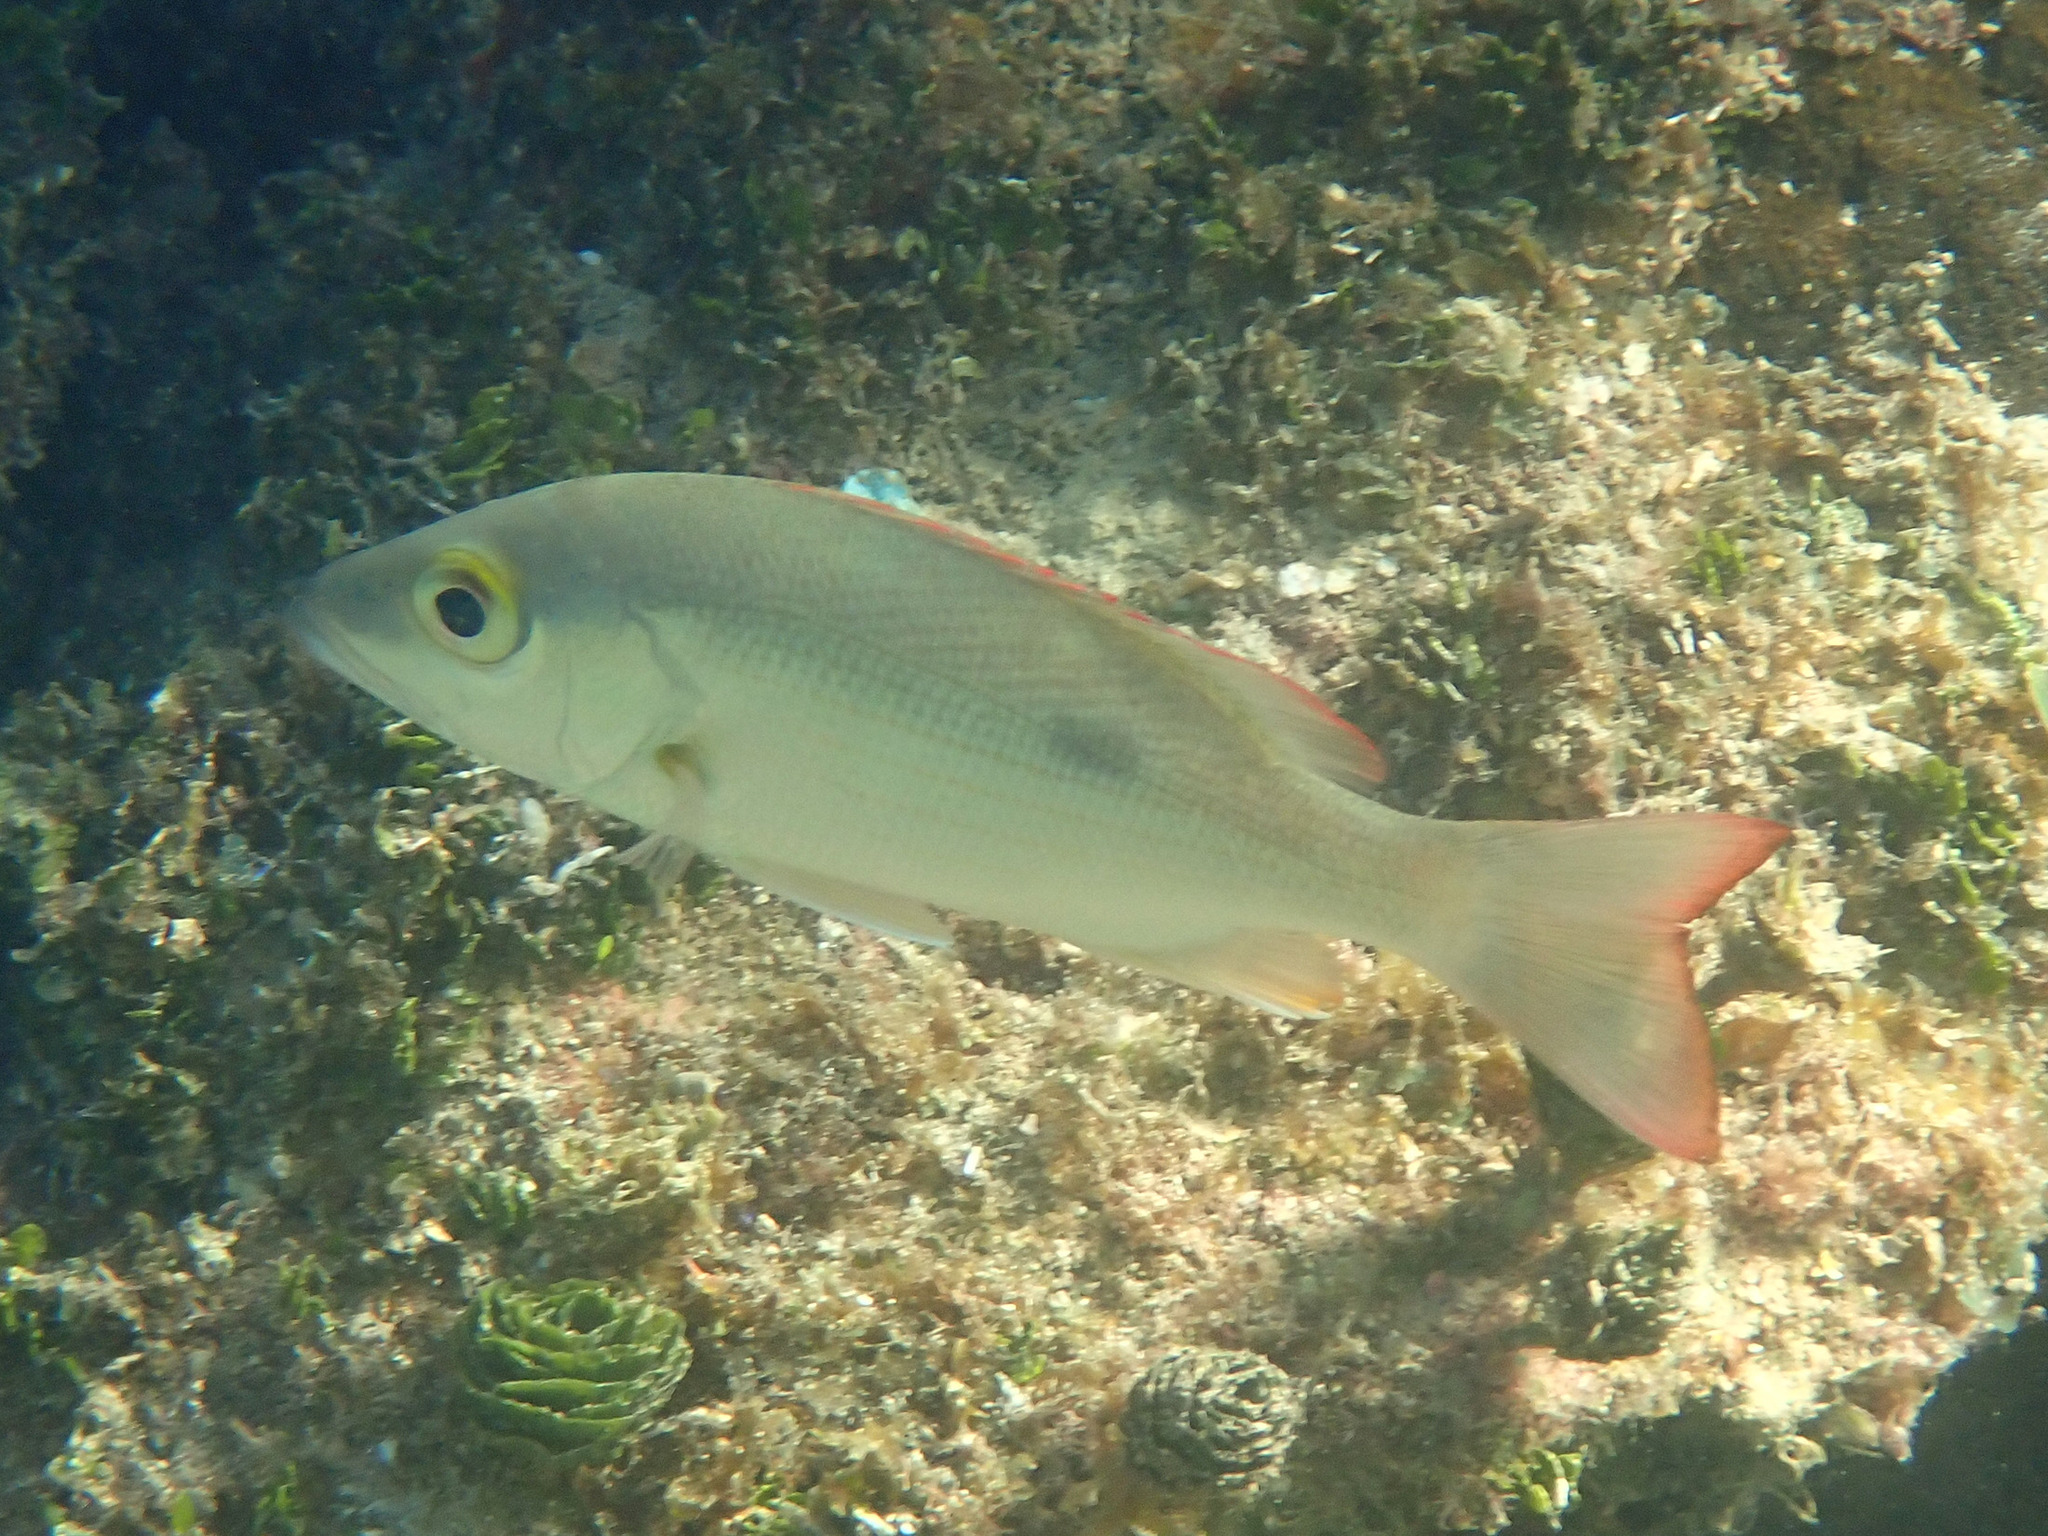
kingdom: Animalia
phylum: Chordata
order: Perciformes
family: Lutjanidae
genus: Lutjanus
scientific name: Lutjanus mahogoni
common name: Spot snapper
